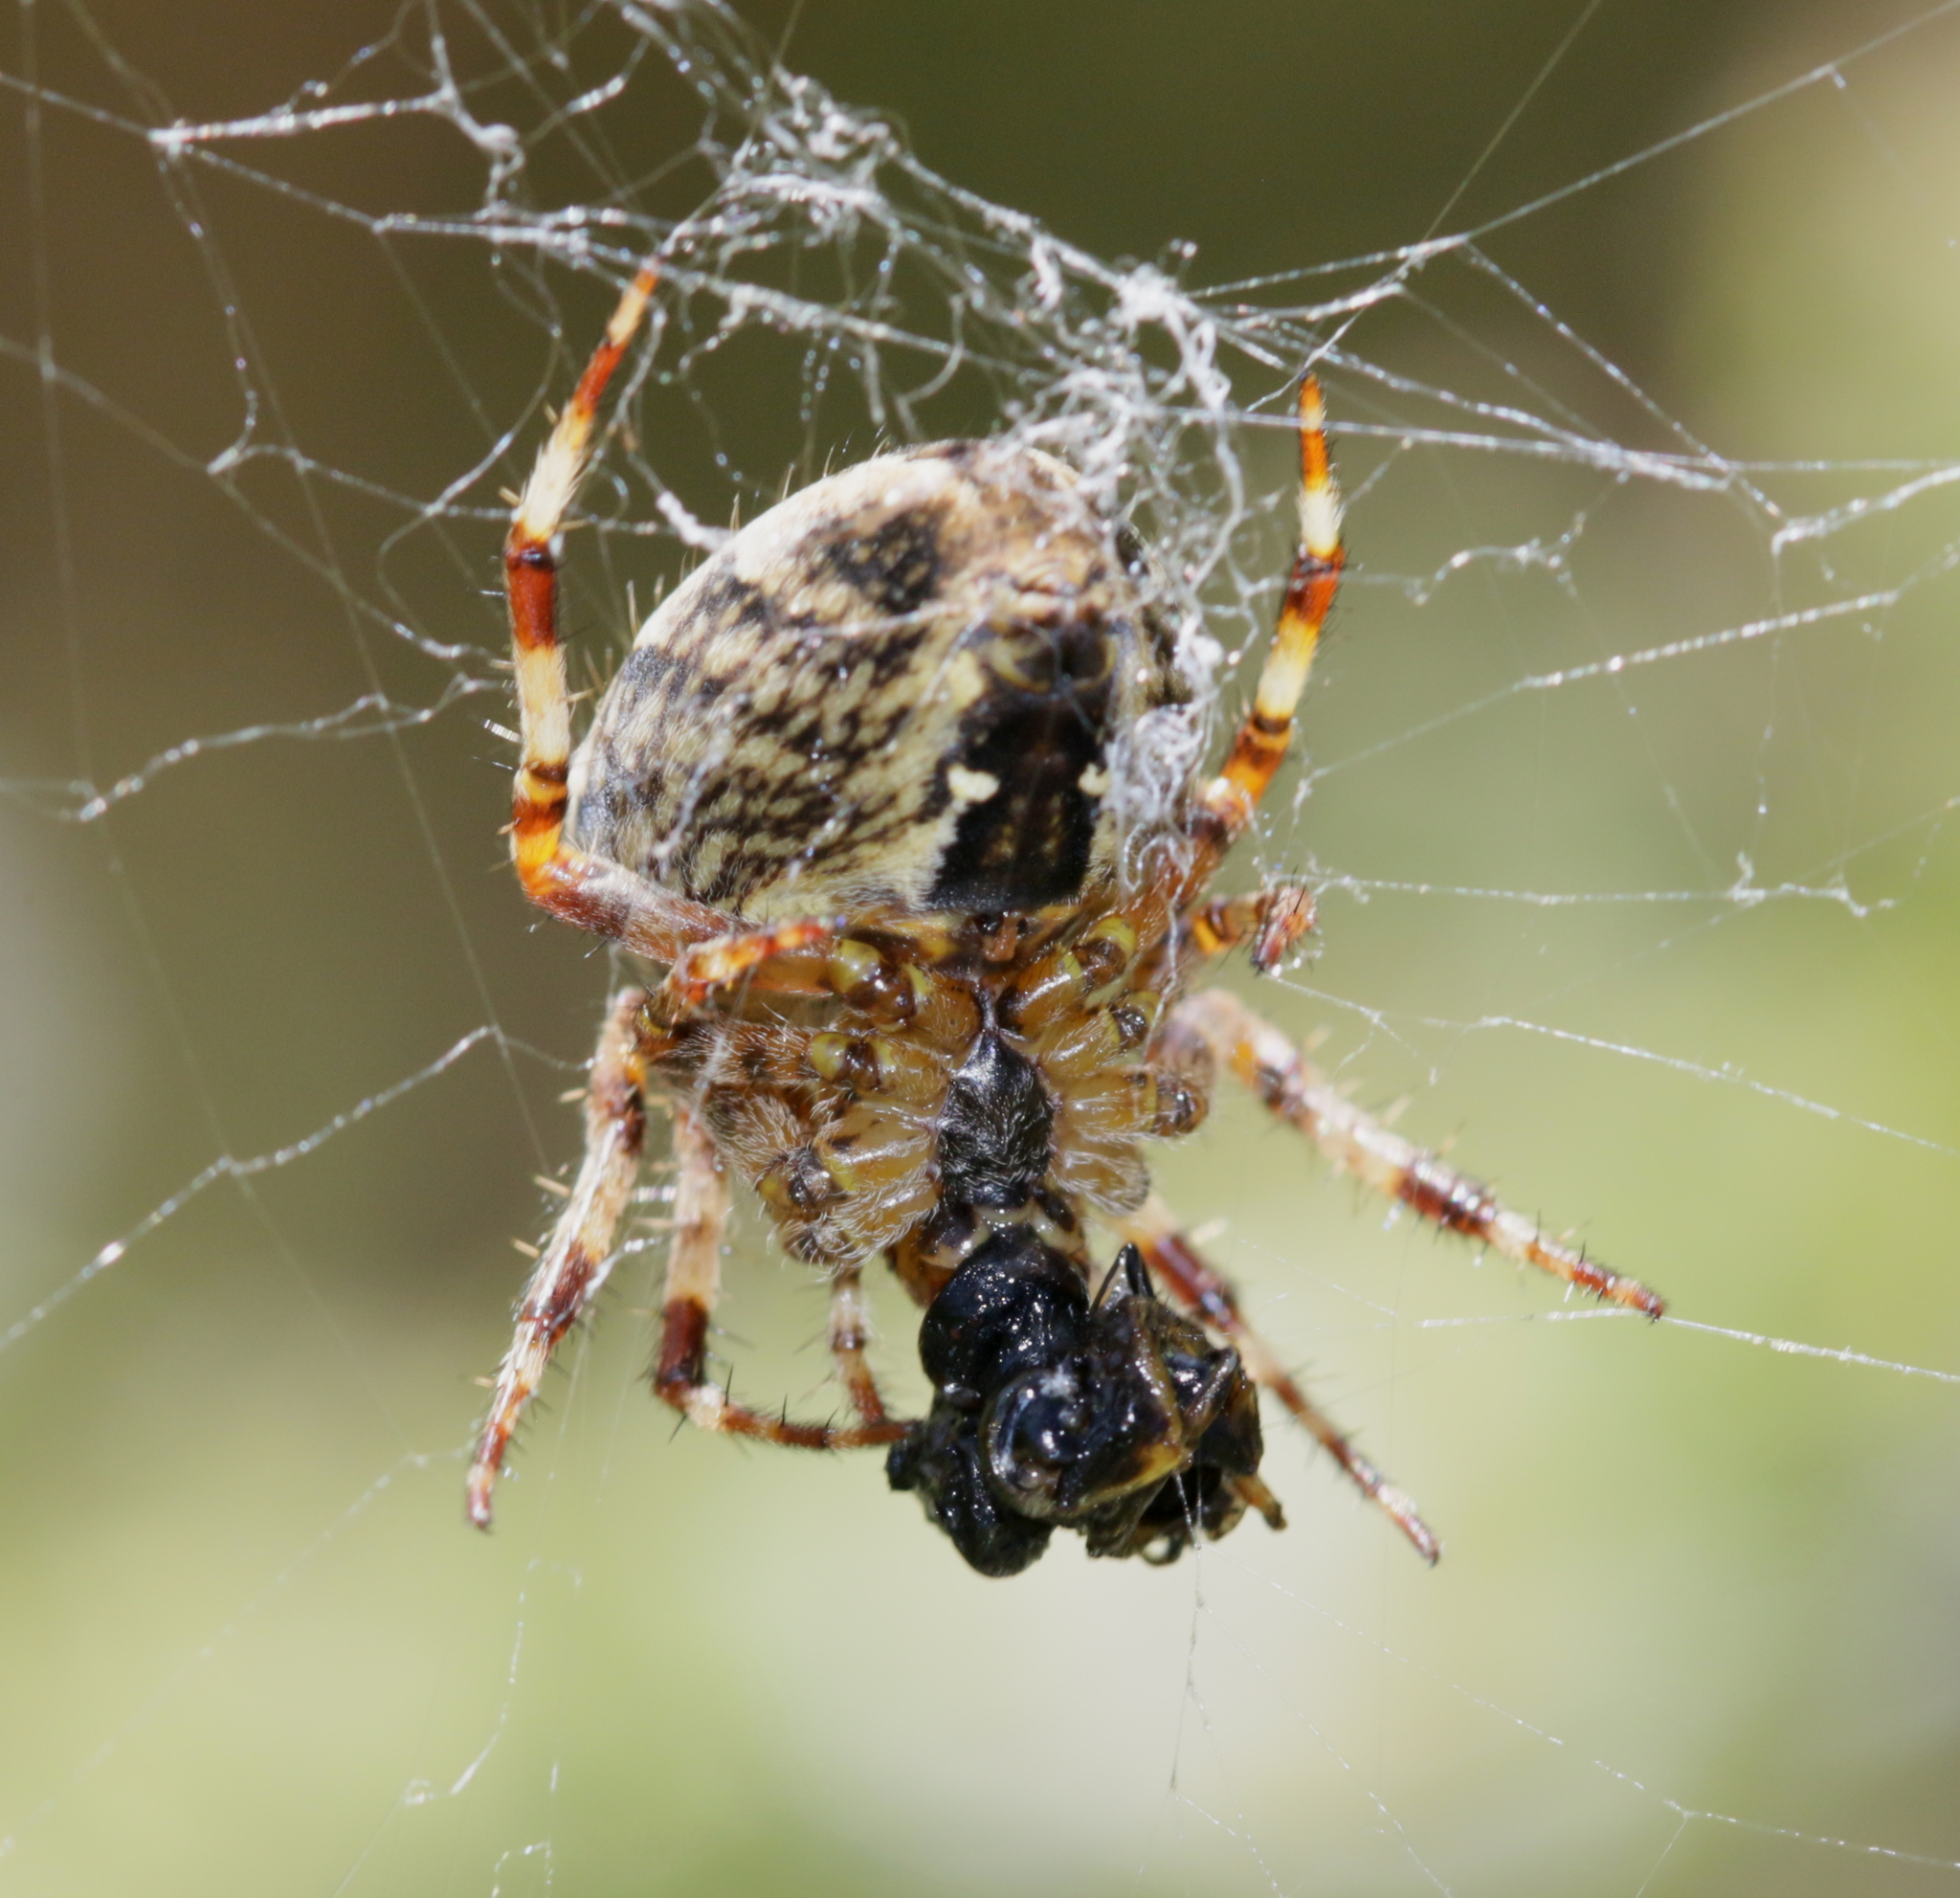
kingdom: Animalia
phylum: Arthropoda
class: Arachnida
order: Araneae
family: Araneidae
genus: Araneus
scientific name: Araneus diadematus
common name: Cross orbweaver
